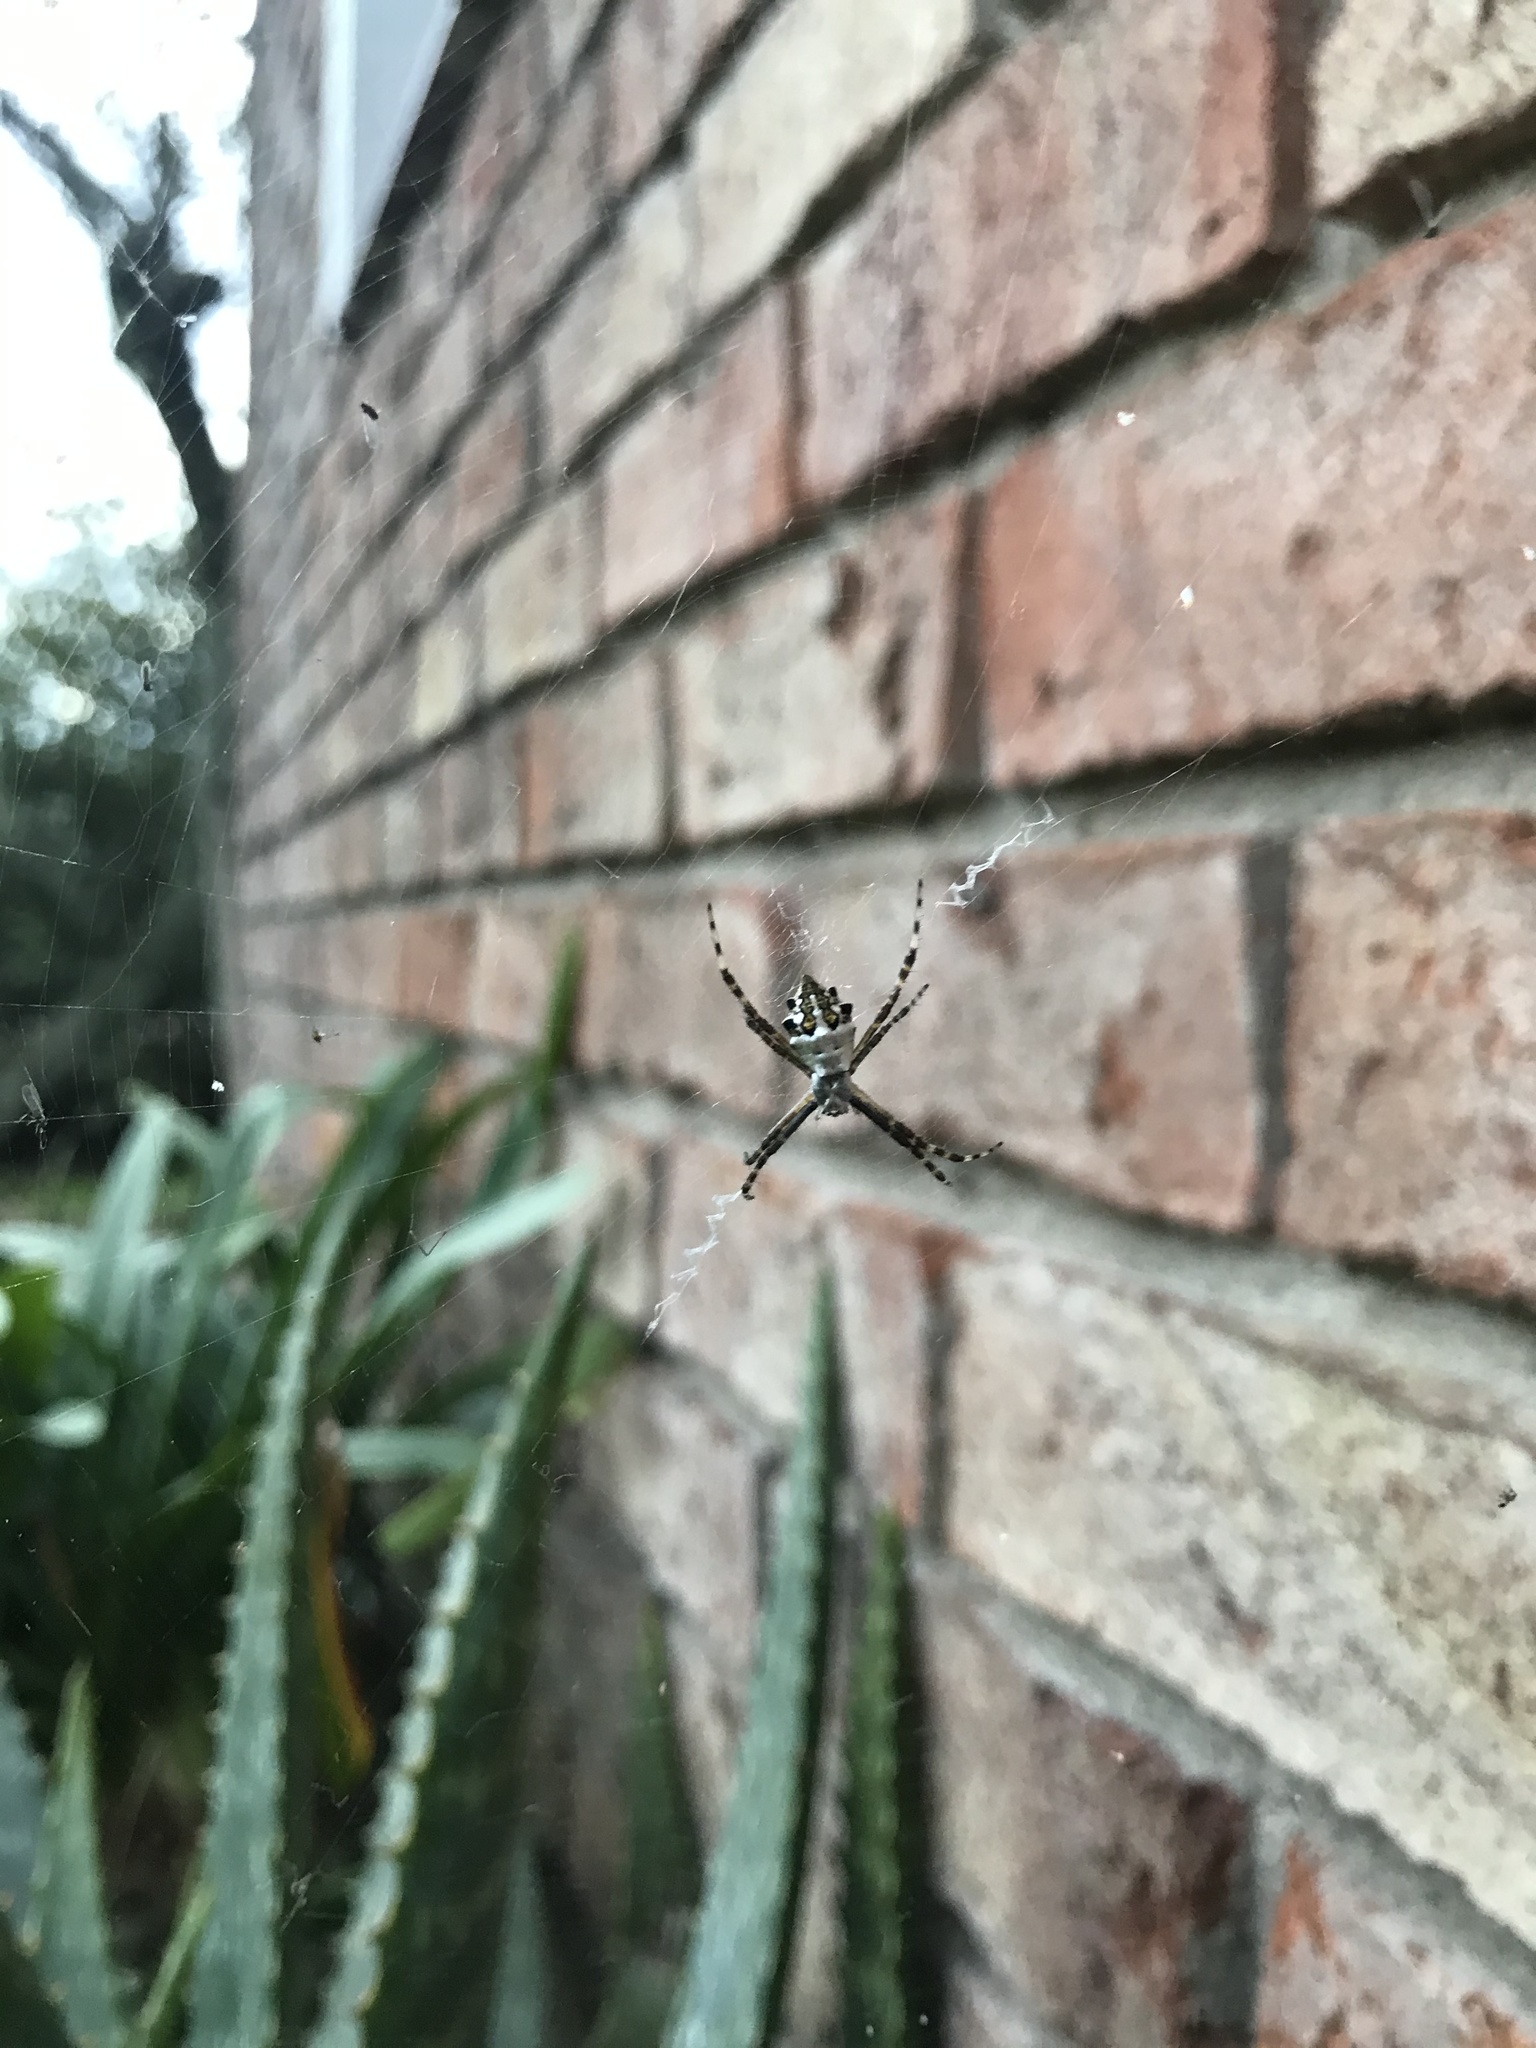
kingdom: Animalia
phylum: Arthropoda
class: Arachnida
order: Araneae
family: Araneidae
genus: Argiope
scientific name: Argiope argentata
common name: Orb weavers
